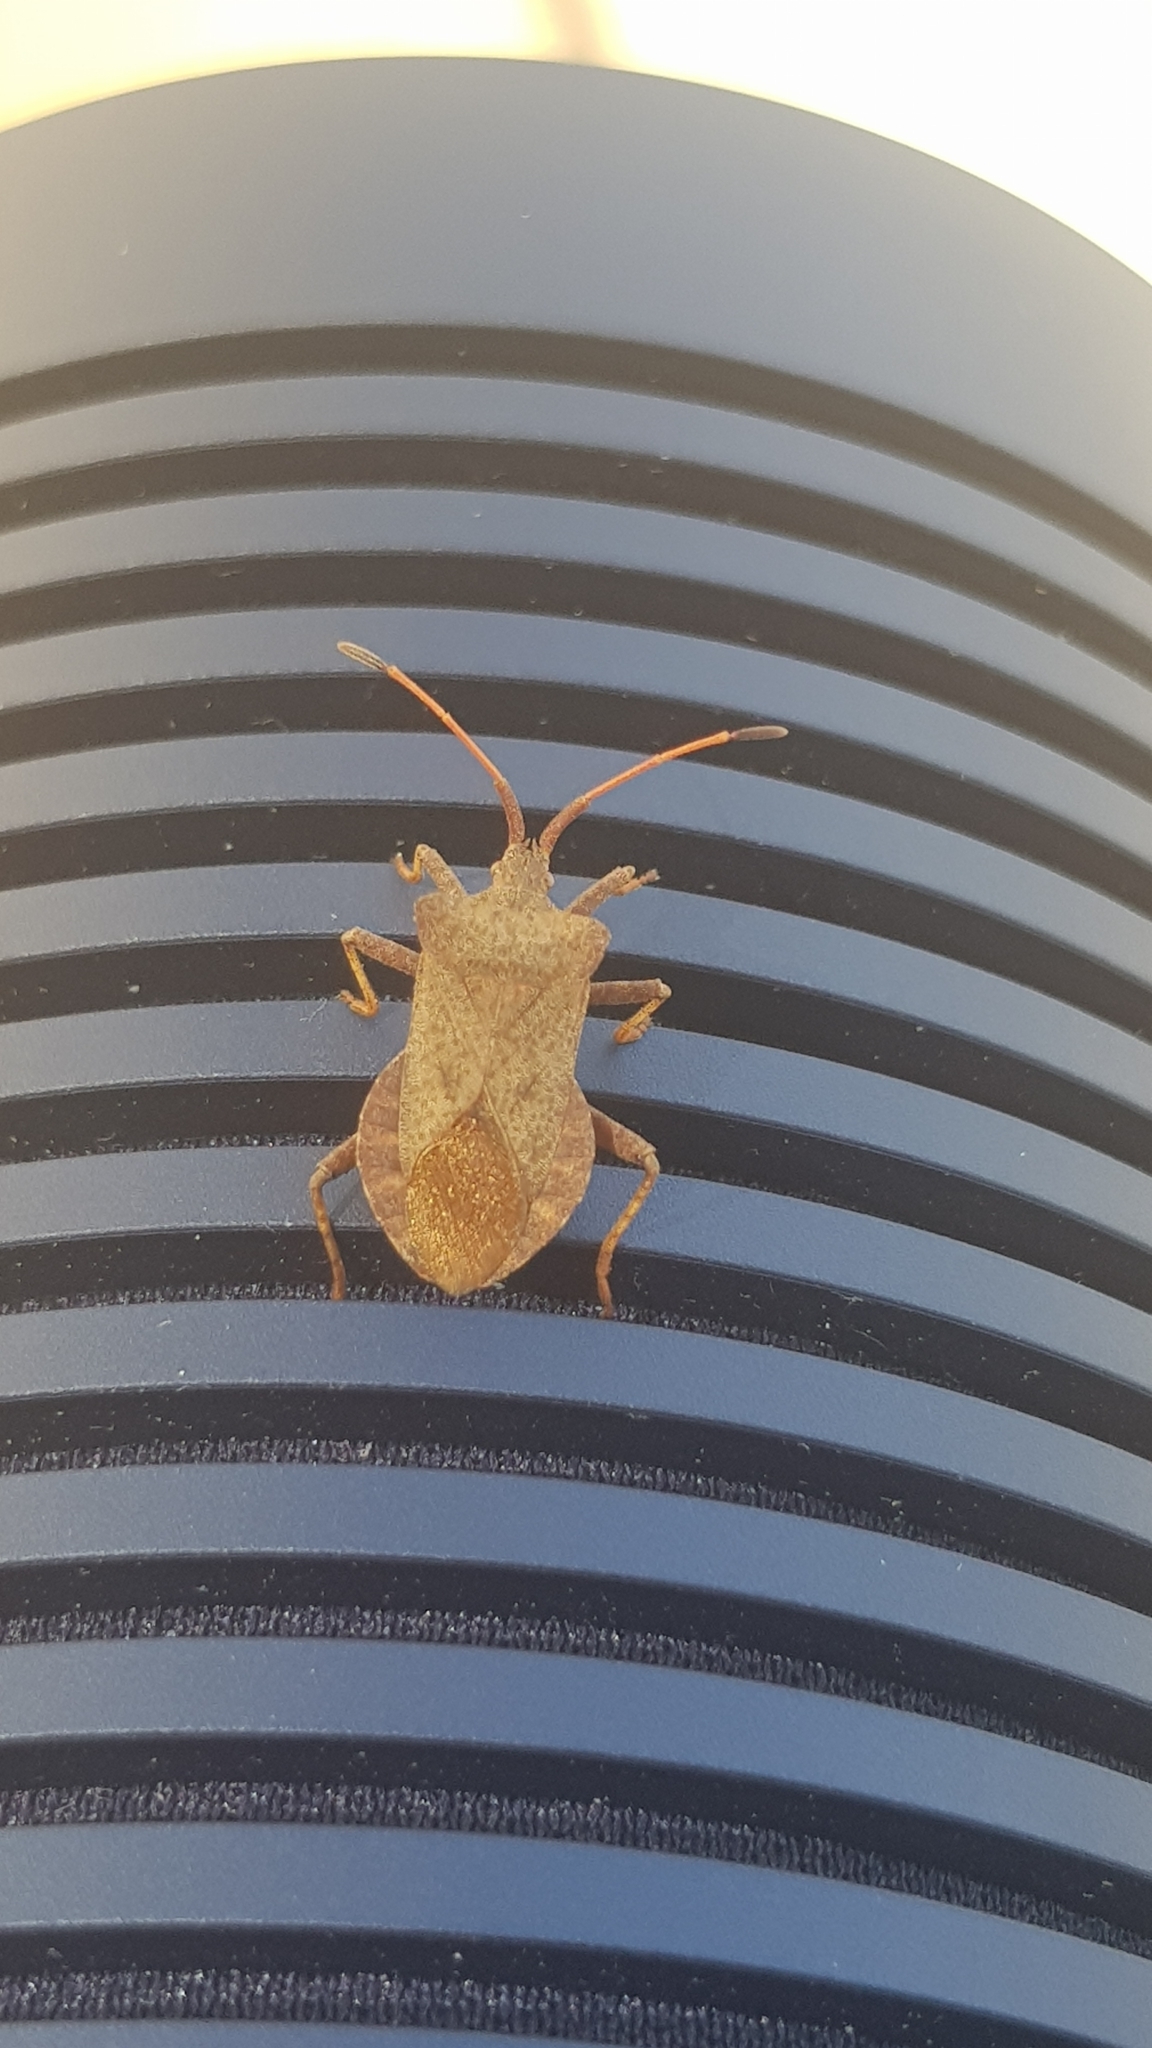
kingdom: Animalia
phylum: Arthropoda
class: Insecta
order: Hemiptera
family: Coreidae
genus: Coreus
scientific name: Coreus marginatus
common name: Dock bug
